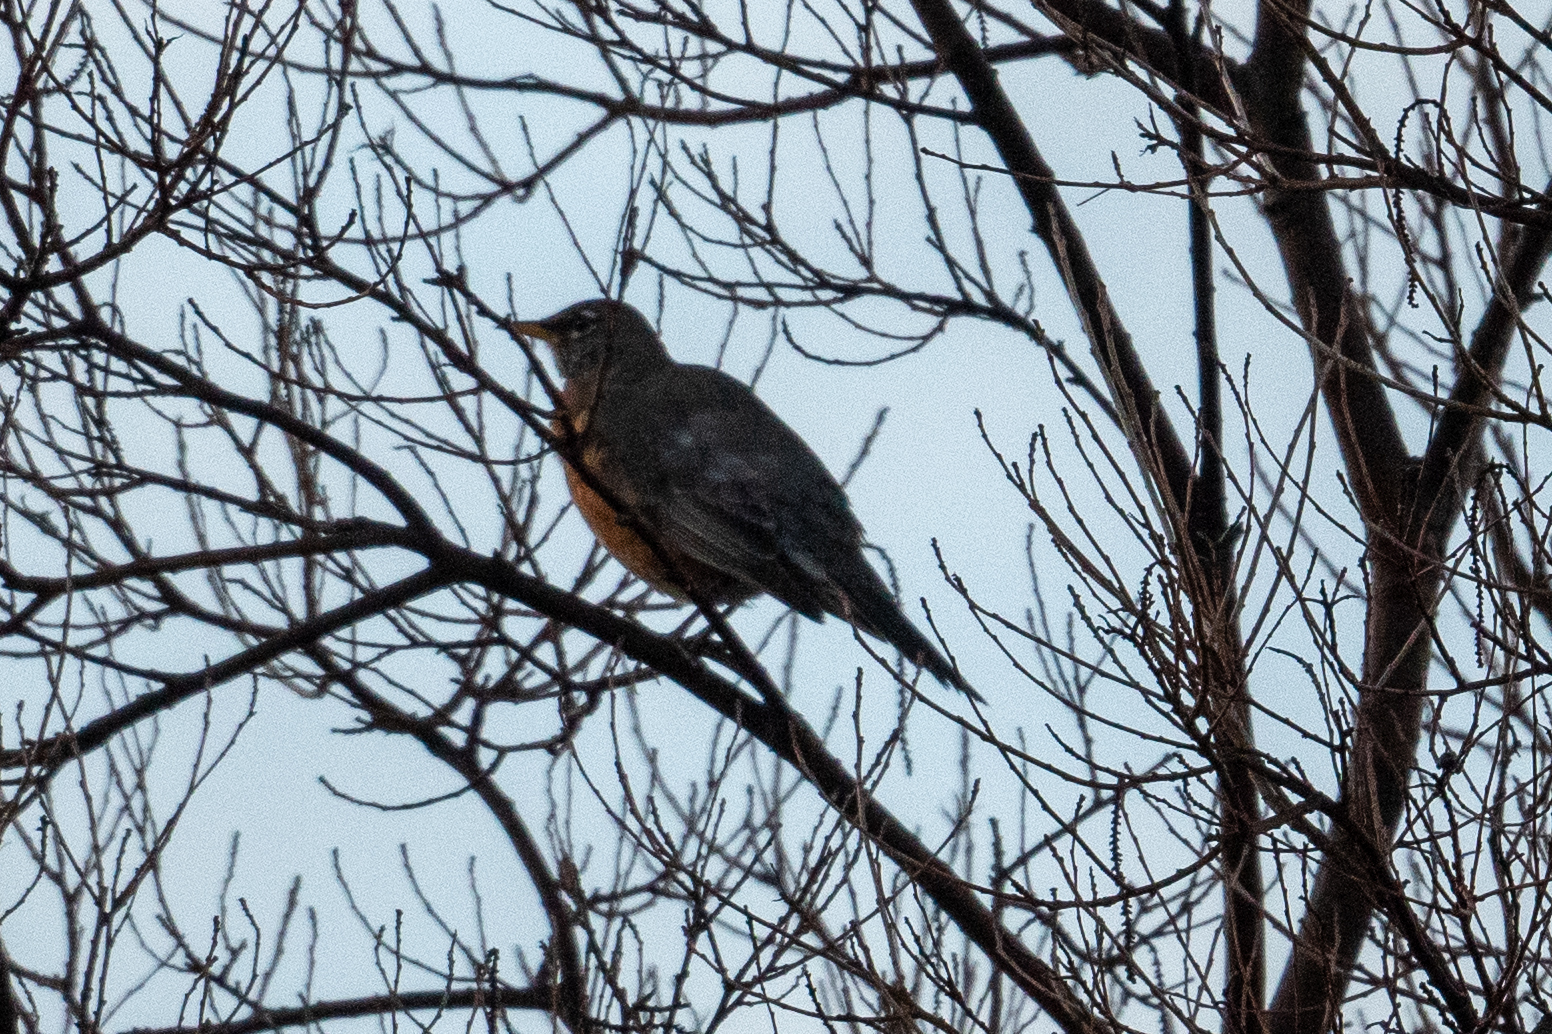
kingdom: Animalia
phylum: Chordata
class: Aves
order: Passeriformes
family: Turdidae
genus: Turdus
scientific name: Turdus migratorius
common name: American robin
